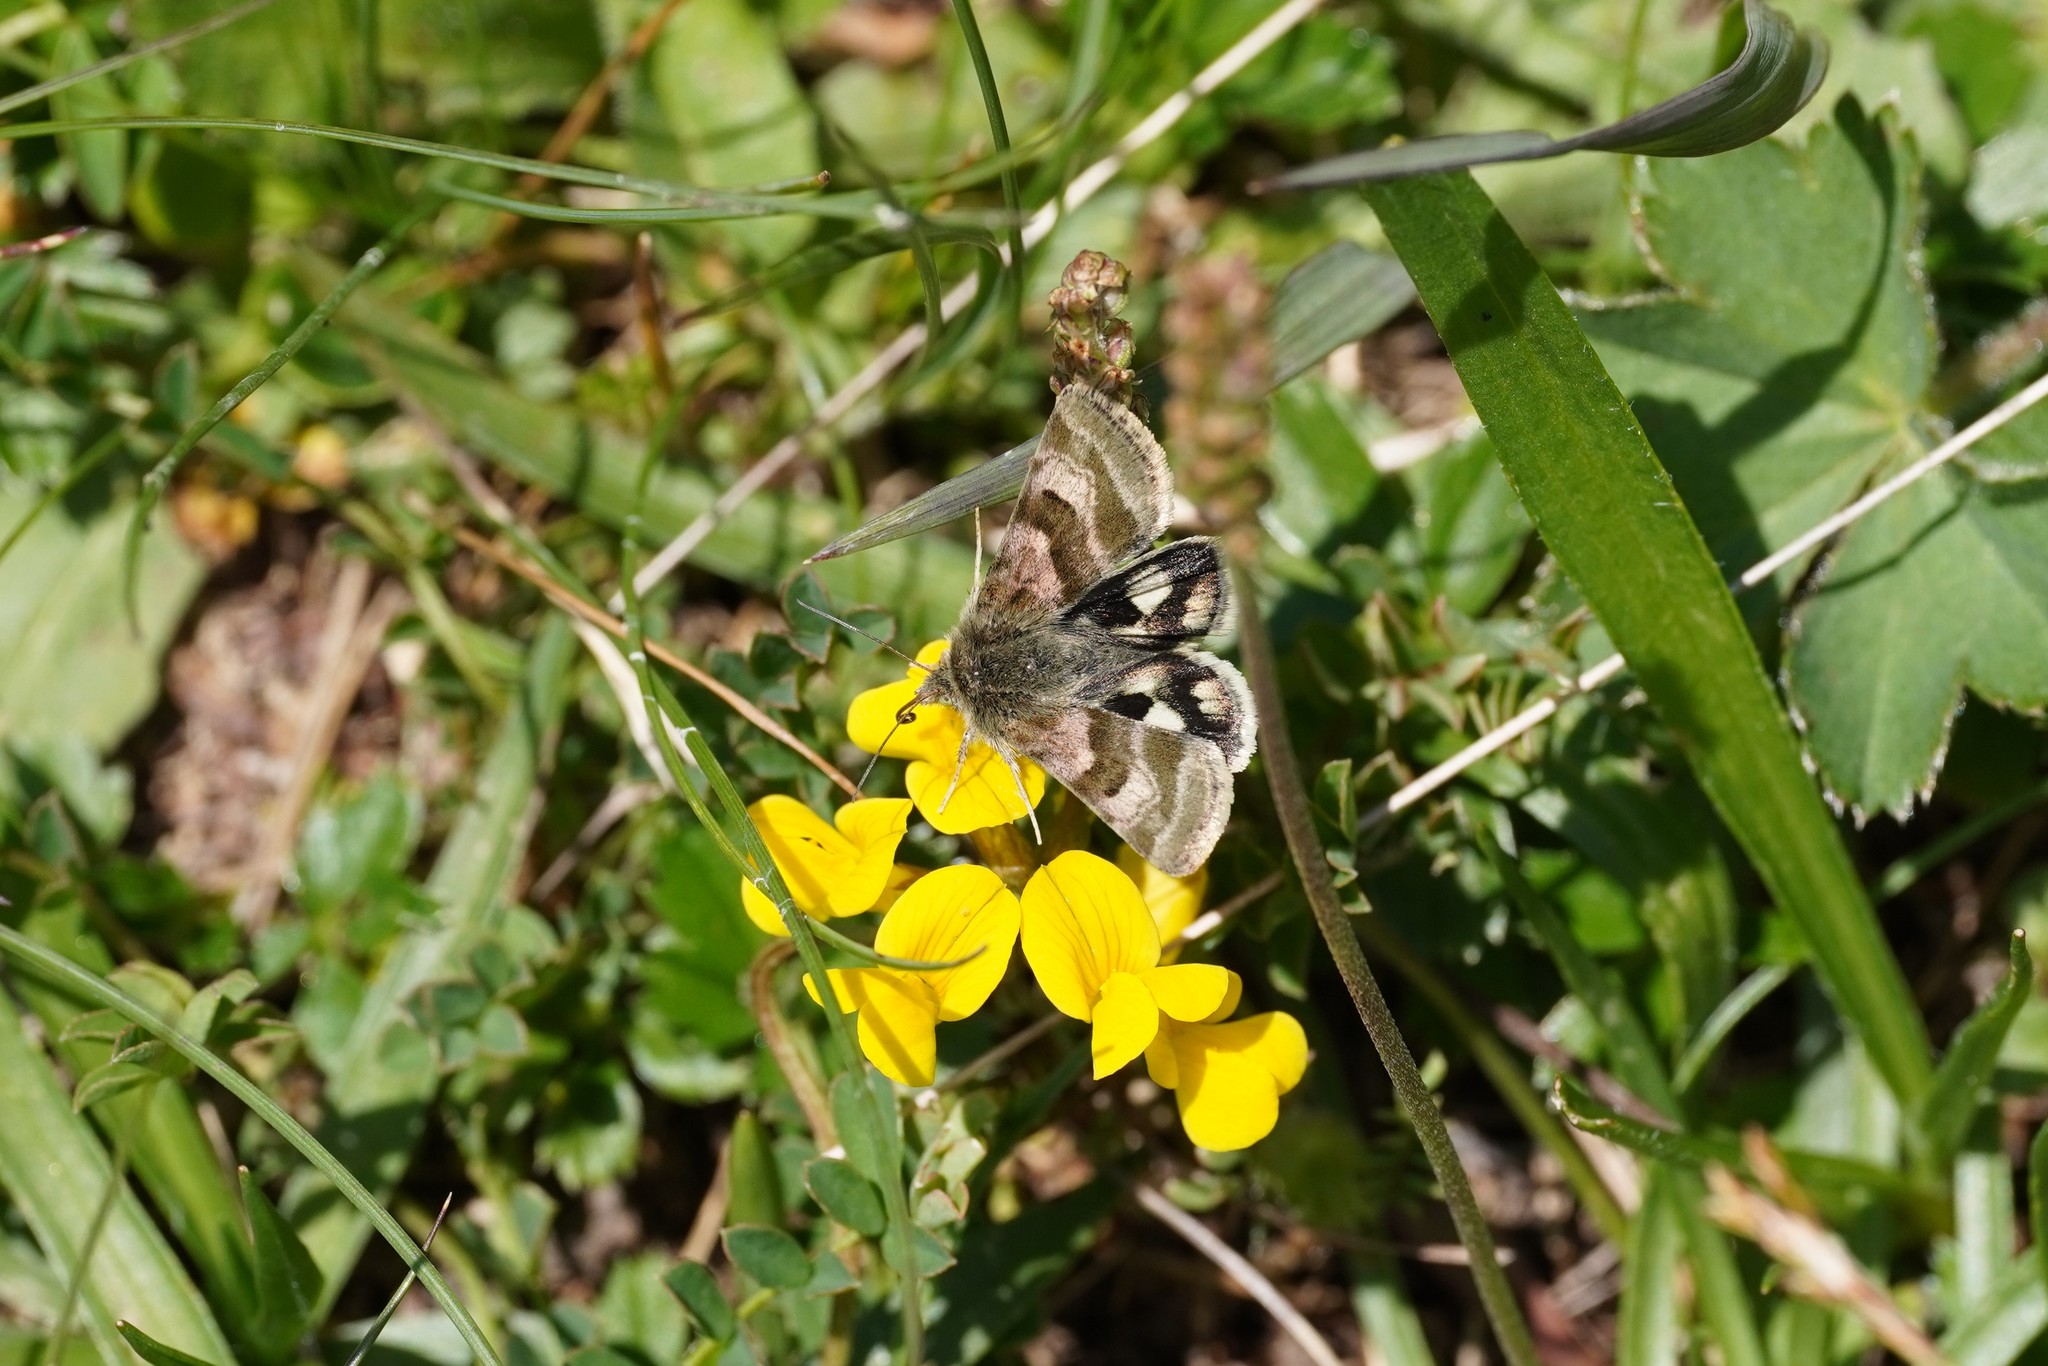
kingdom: Animalia
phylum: Arthropoda
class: Insecta
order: Lepidoptera
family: Noctuidae
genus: Heliothis
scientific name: Heliothis ononis
